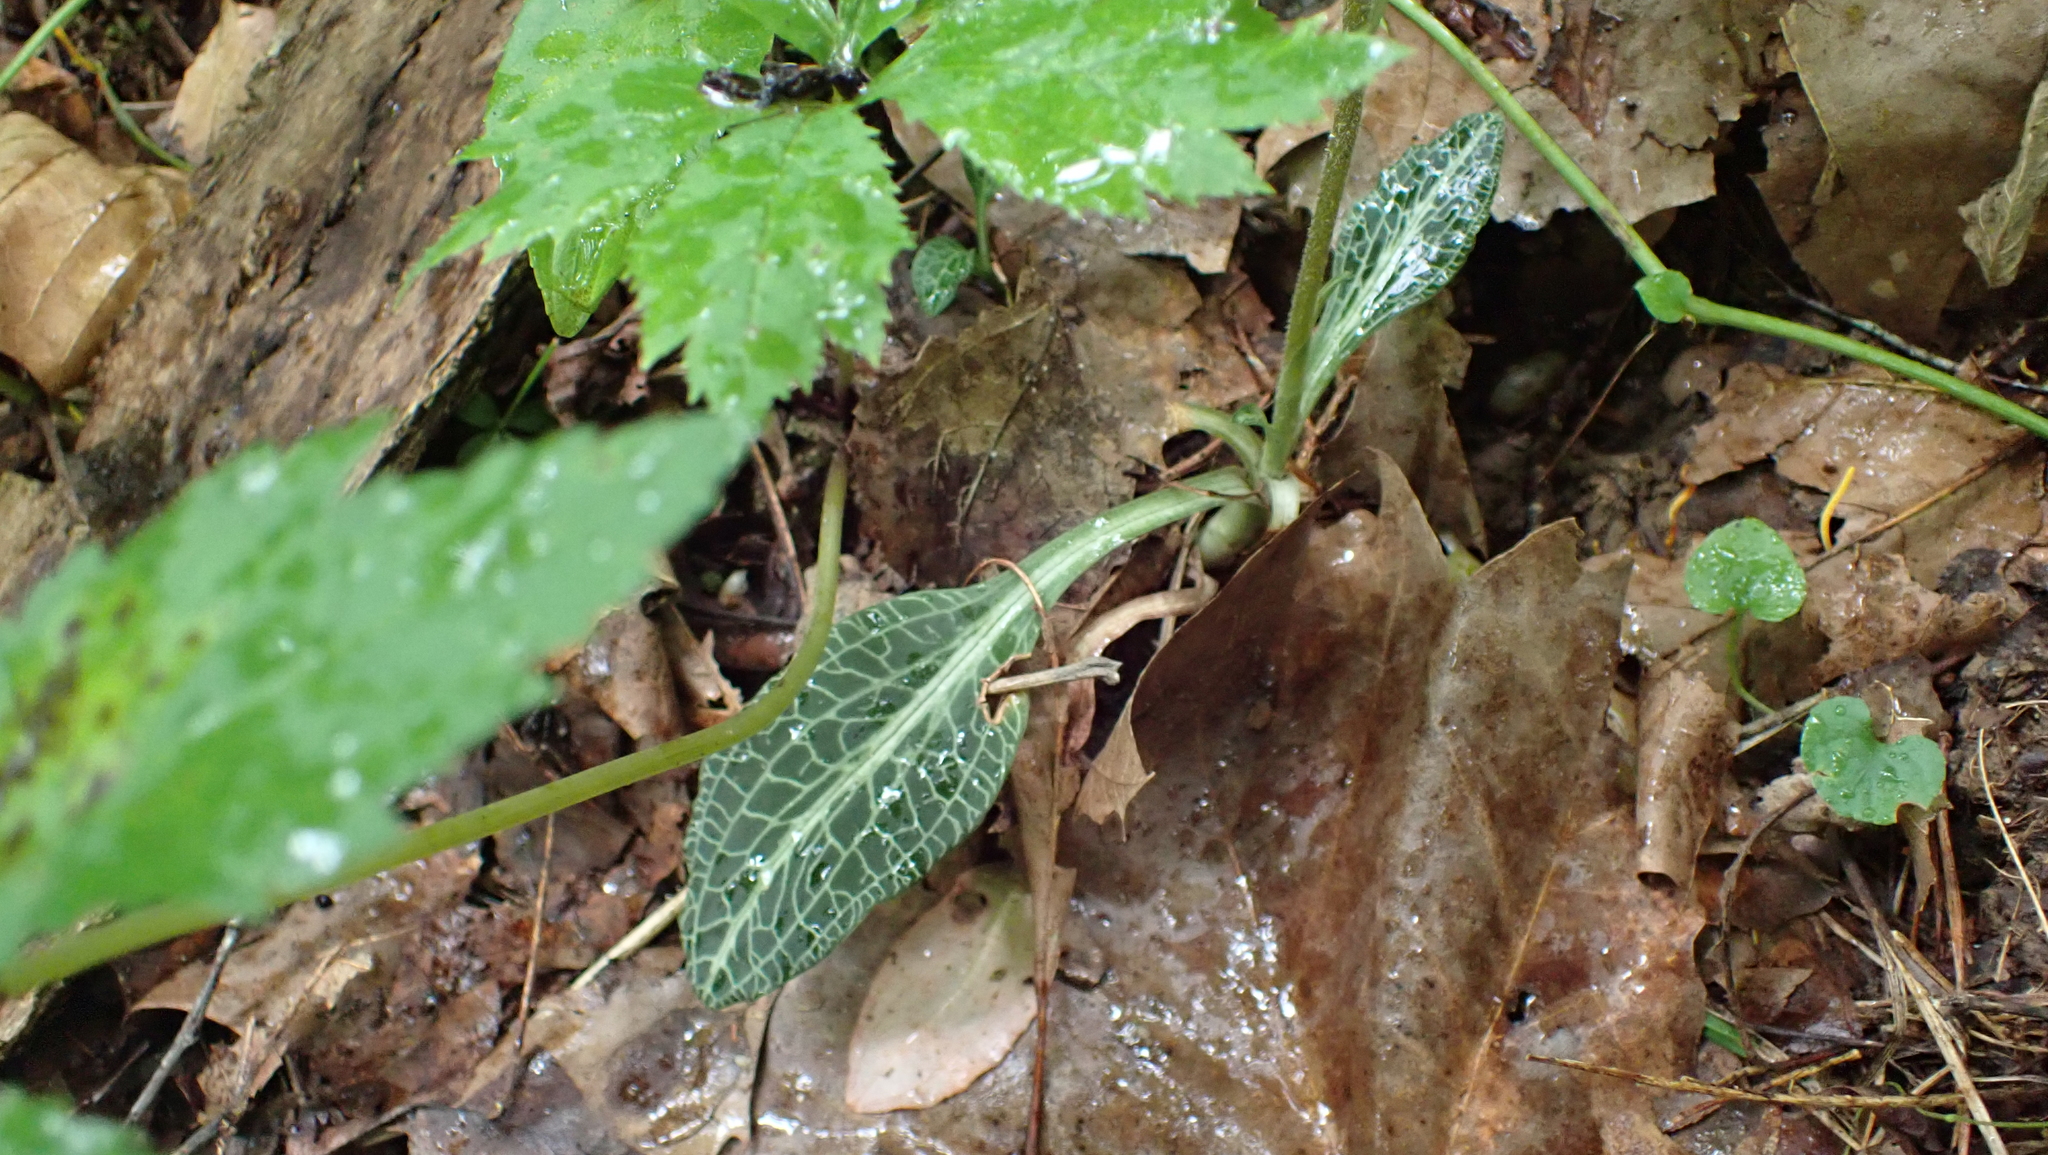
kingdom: Plantae
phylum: Tracheophyta
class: Liliopsida
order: Asparagales
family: Orchidaceae
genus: Goodyera
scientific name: Goodyera pubescens
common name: Downy rattlesnake-plantain
